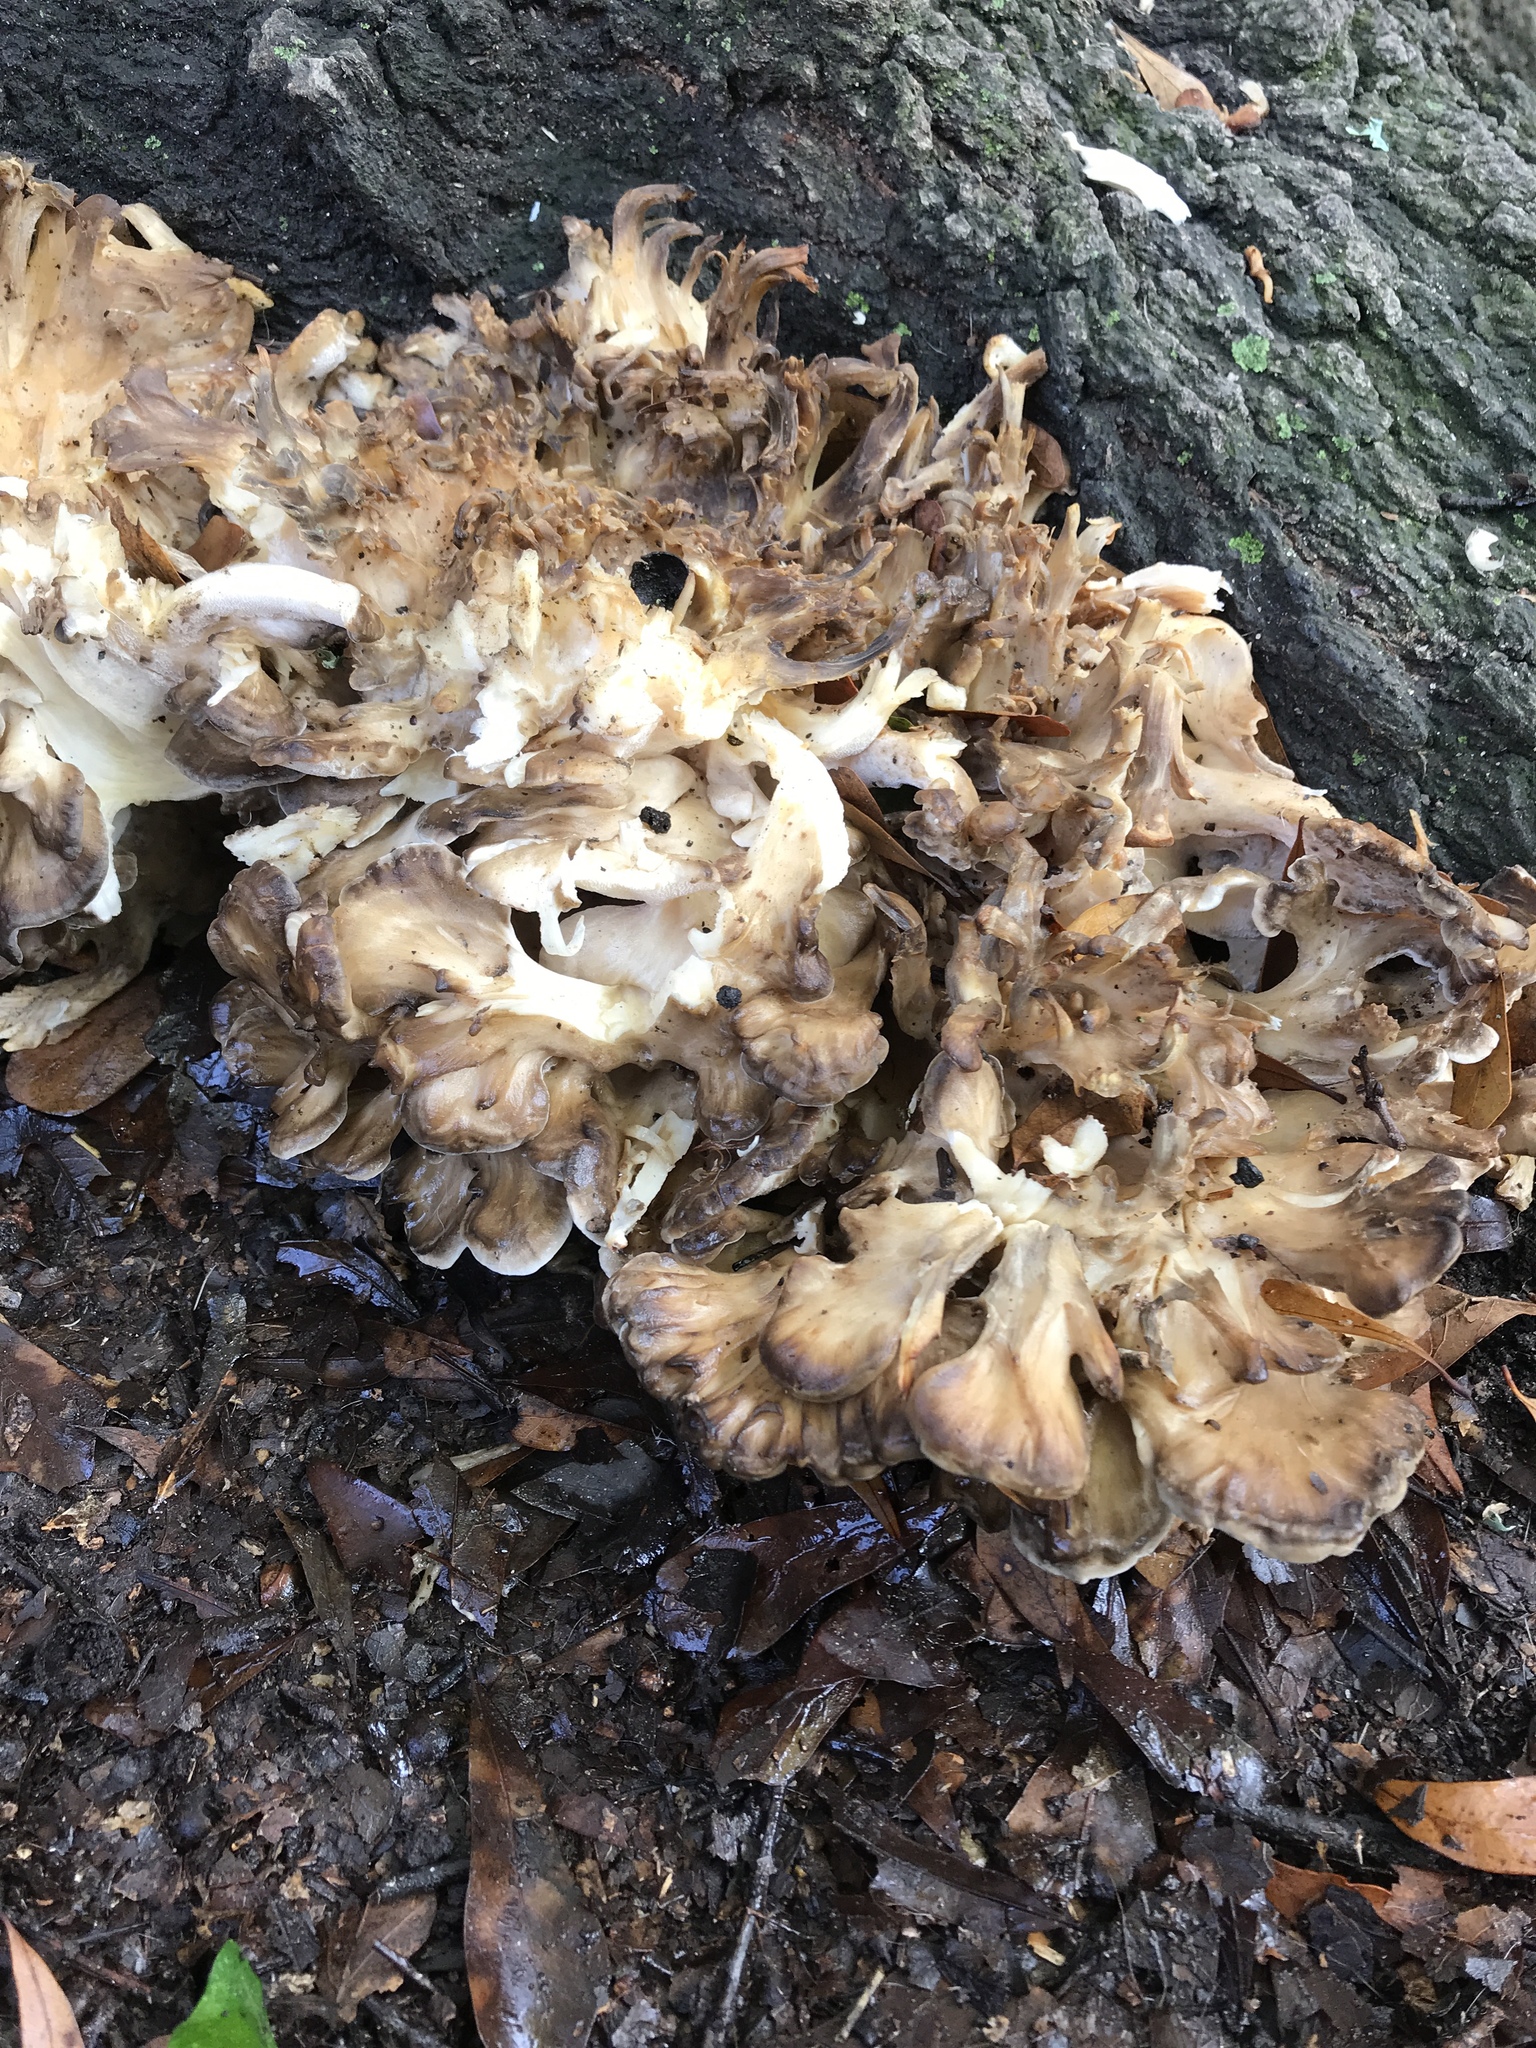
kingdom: Fungi
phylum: Basidiomycota
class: Agaricomycetes
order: Polyporales
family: Grifolaceae
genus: Grifola
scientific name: Grifola frondosa
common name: Hen of the woods
